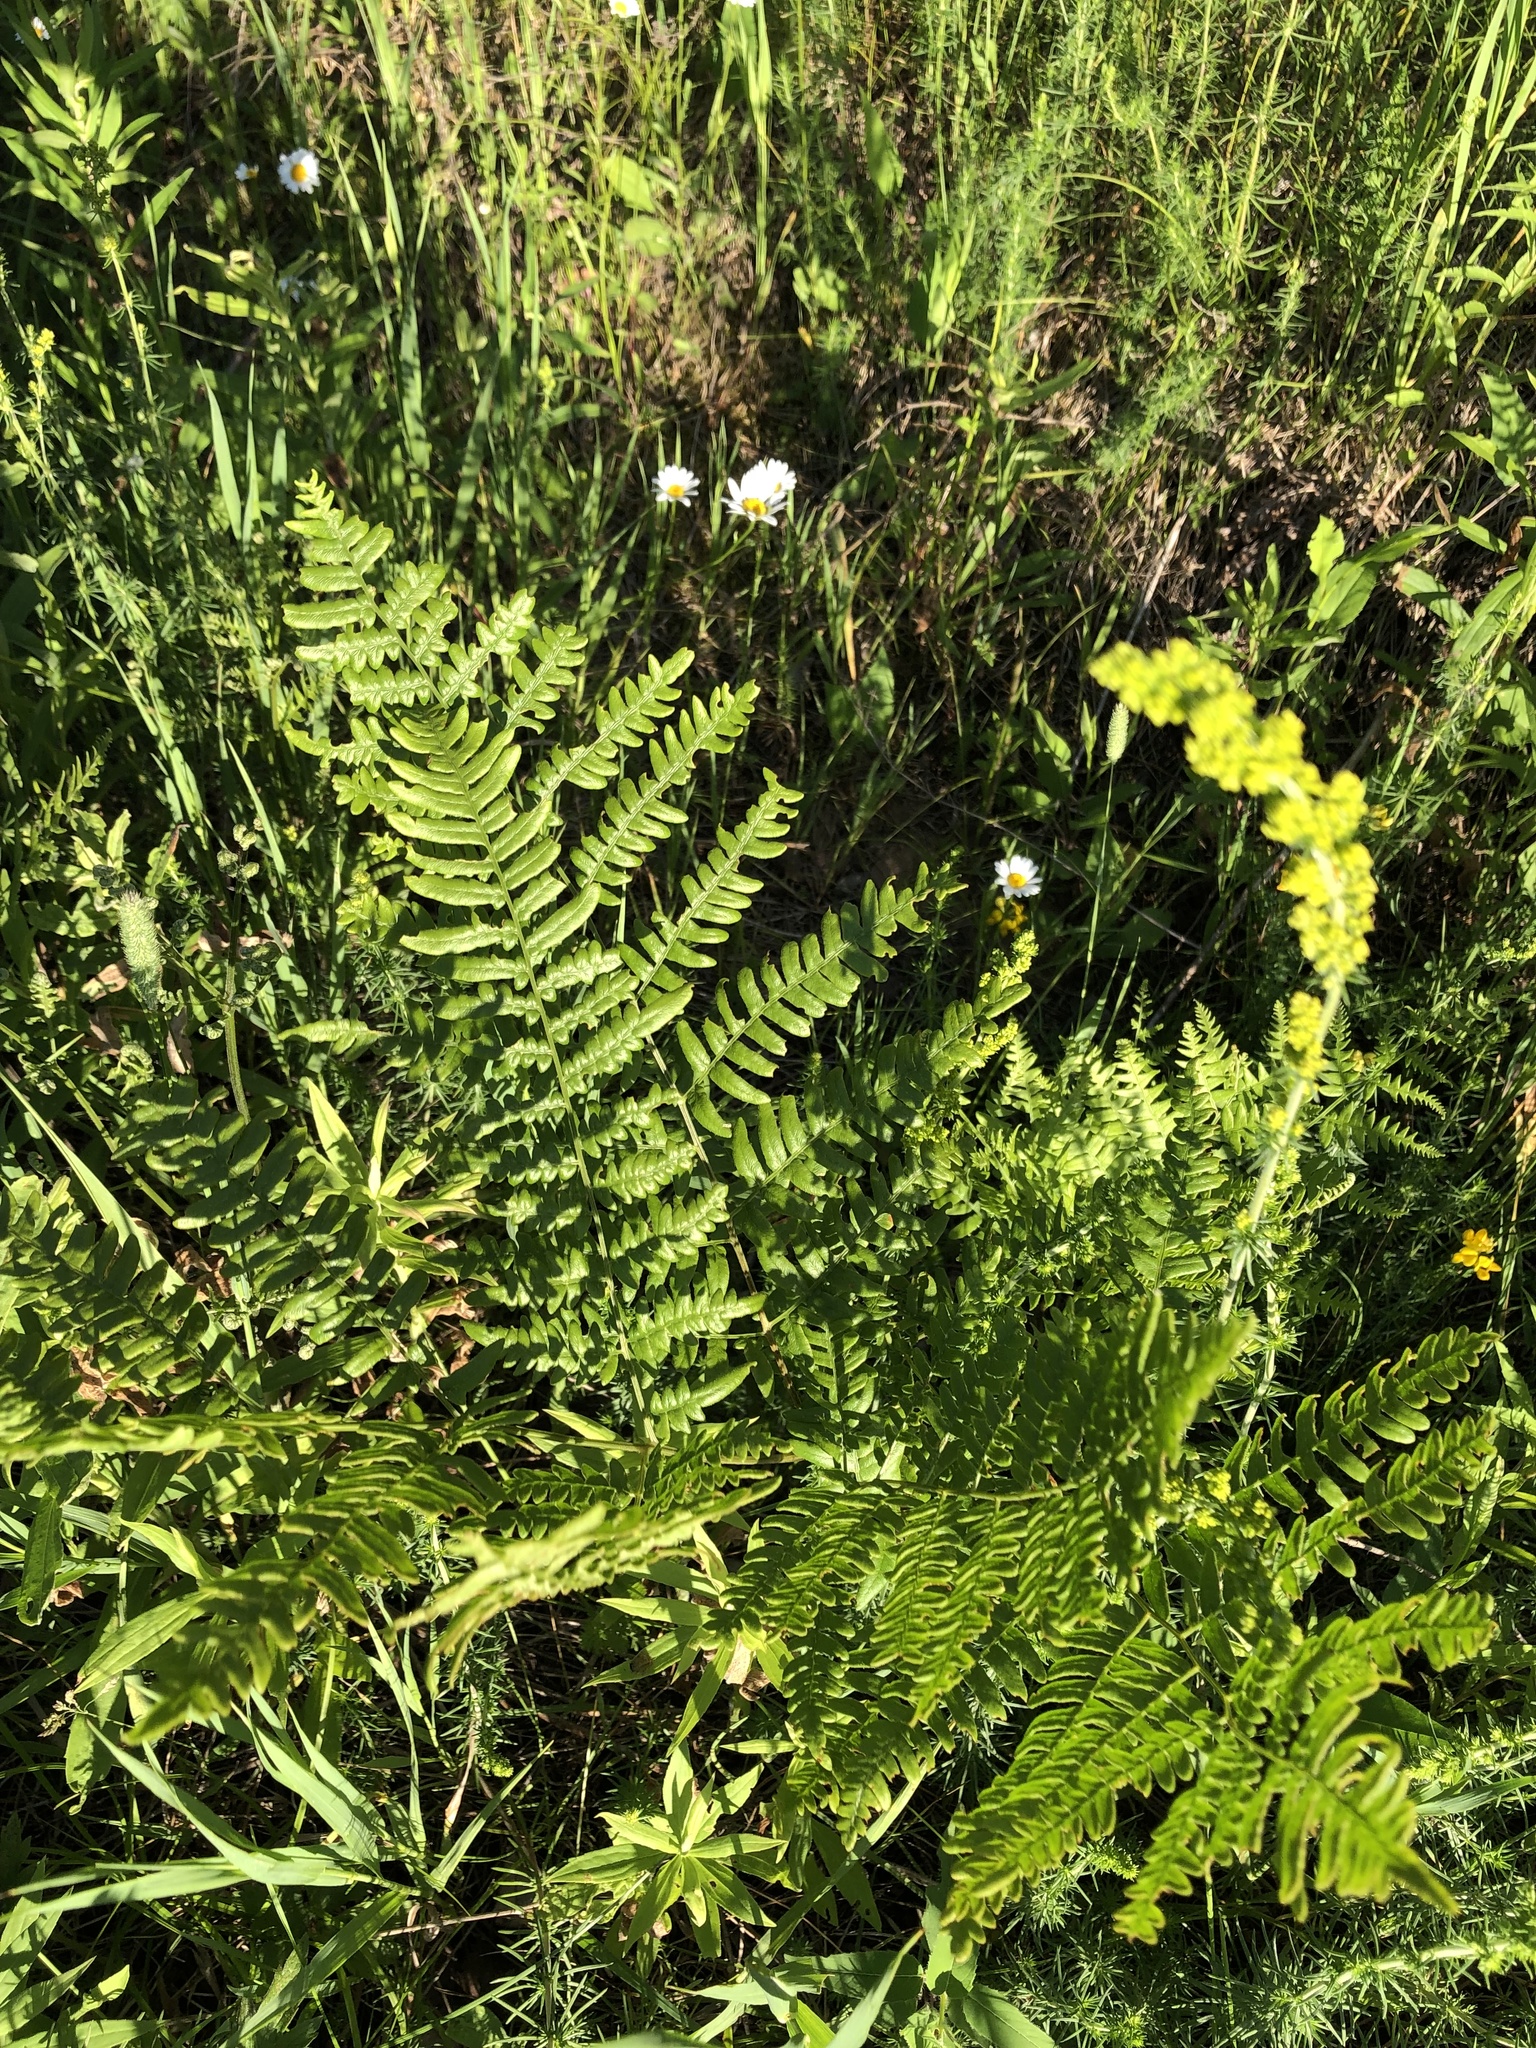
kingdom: Plantae
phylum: Tracheophyta
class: Polypodiopsida
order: Polypodiales
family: Dennstaedtiaceae
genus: Pteridium
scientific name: Pteridium aquilinum
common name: Bracken
